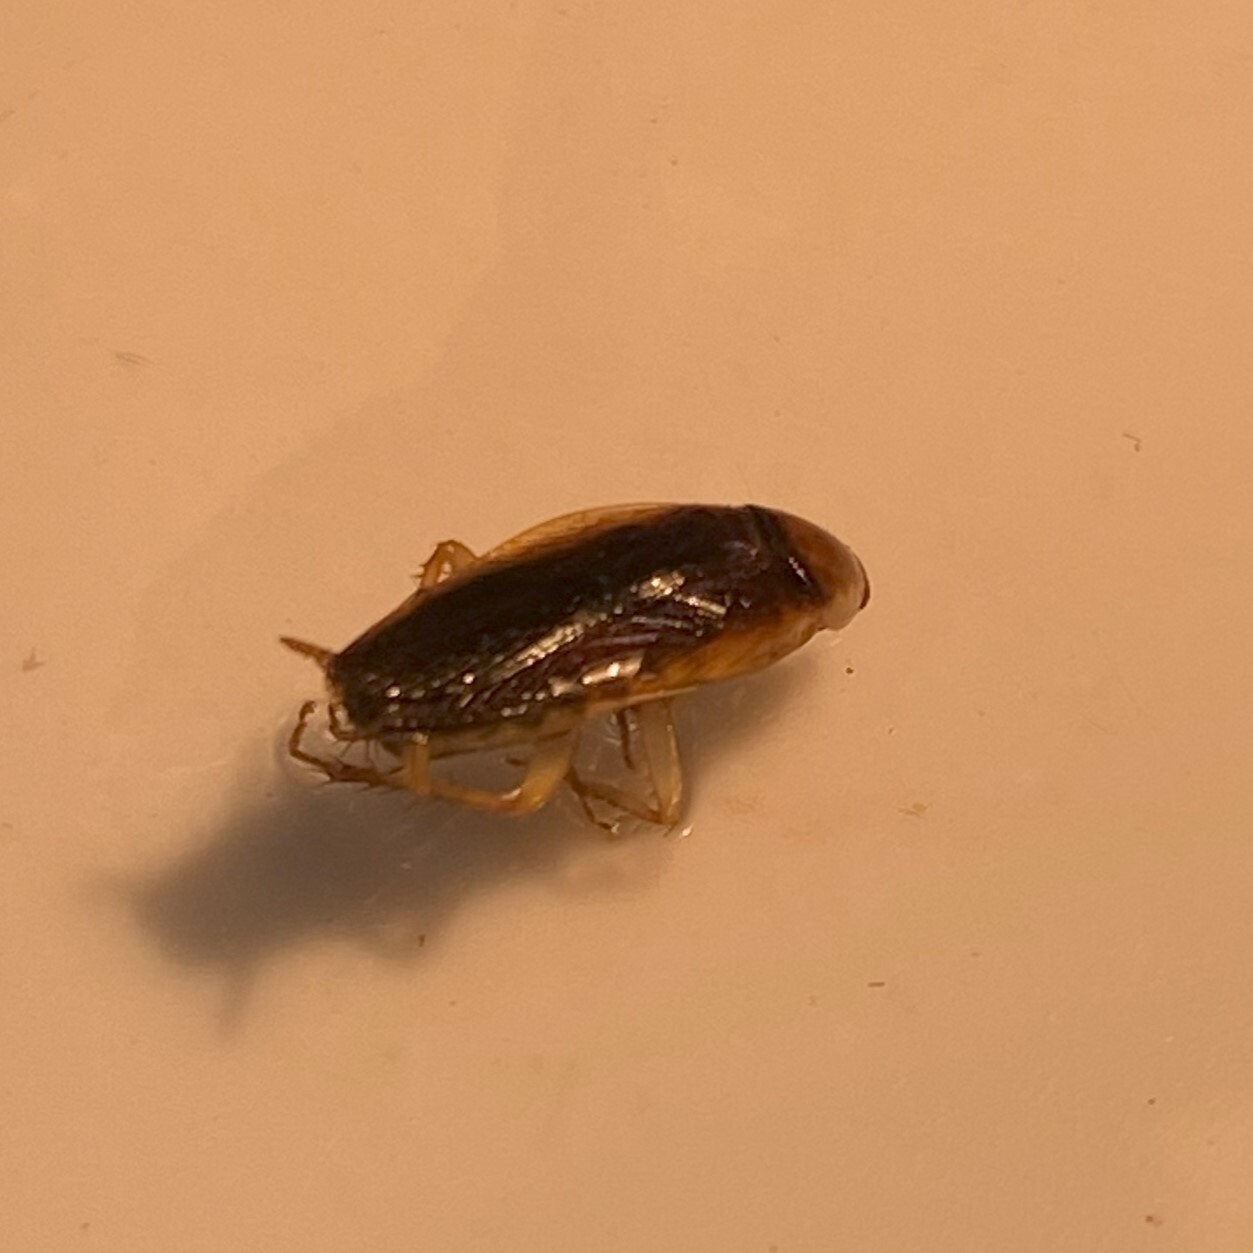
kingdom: Animalia
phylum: Arthropoda
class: Insecta
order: Blattodea
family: Ectobiidae
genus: Hemithyrsocera
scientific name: Hemithyrsocera silbergliedi
